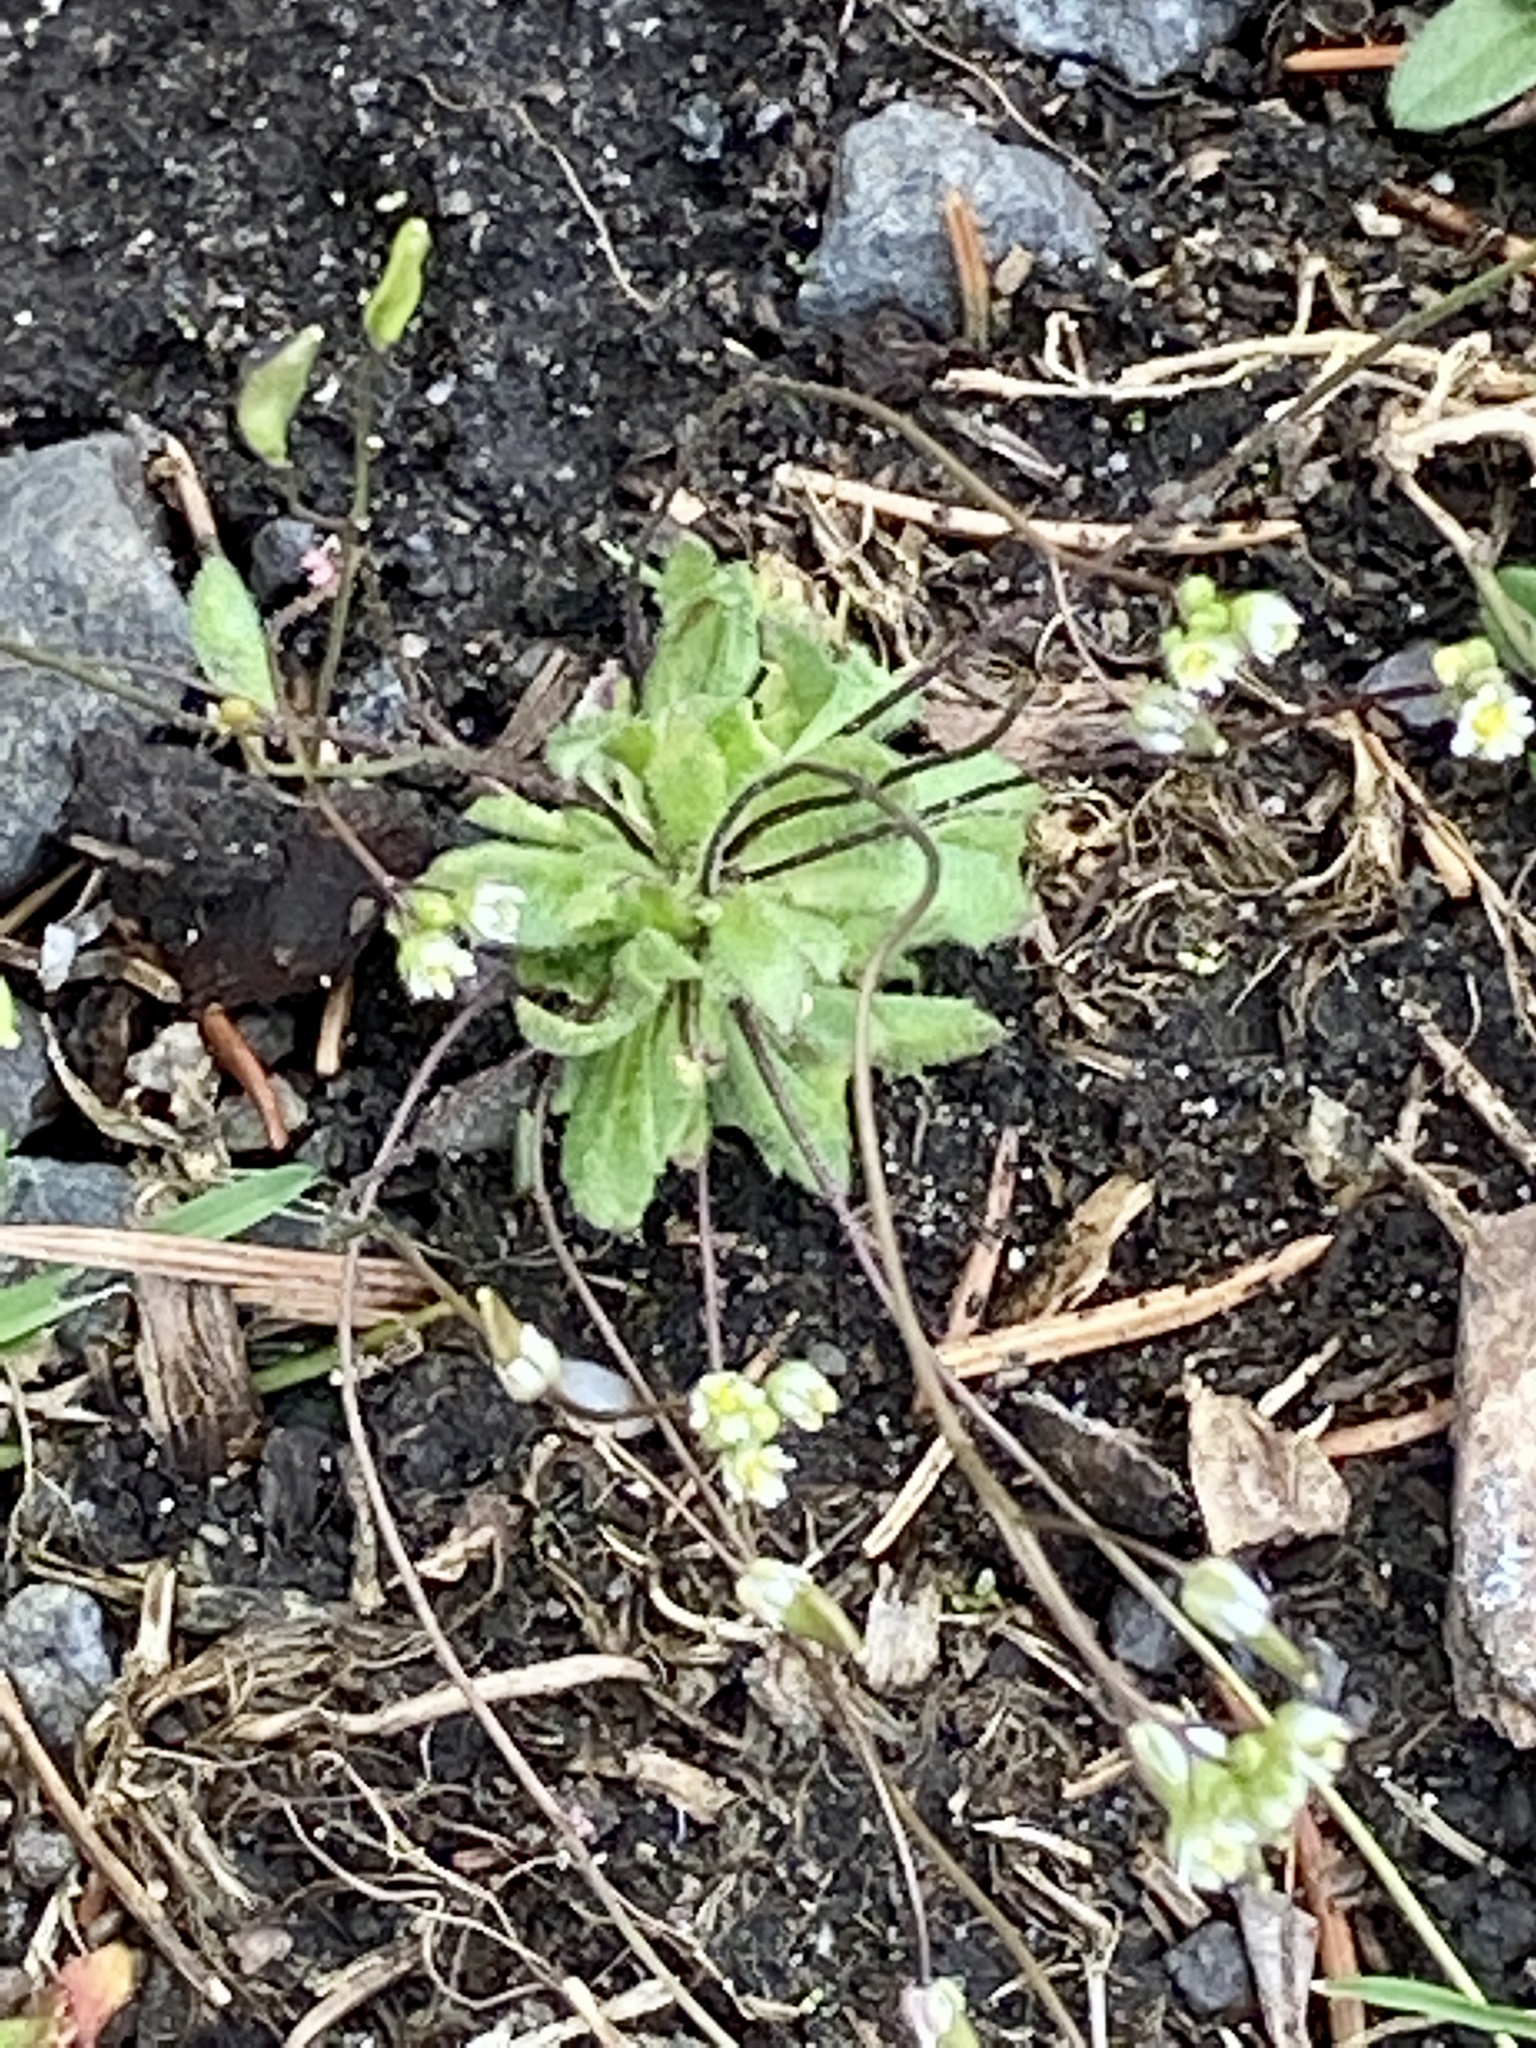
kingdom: Plantae
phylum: Tracheophyta
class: Magnoliopsida
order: Brassicales
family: Brassicaceae
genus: Draba
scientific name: Draba verna
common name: Spring draba
